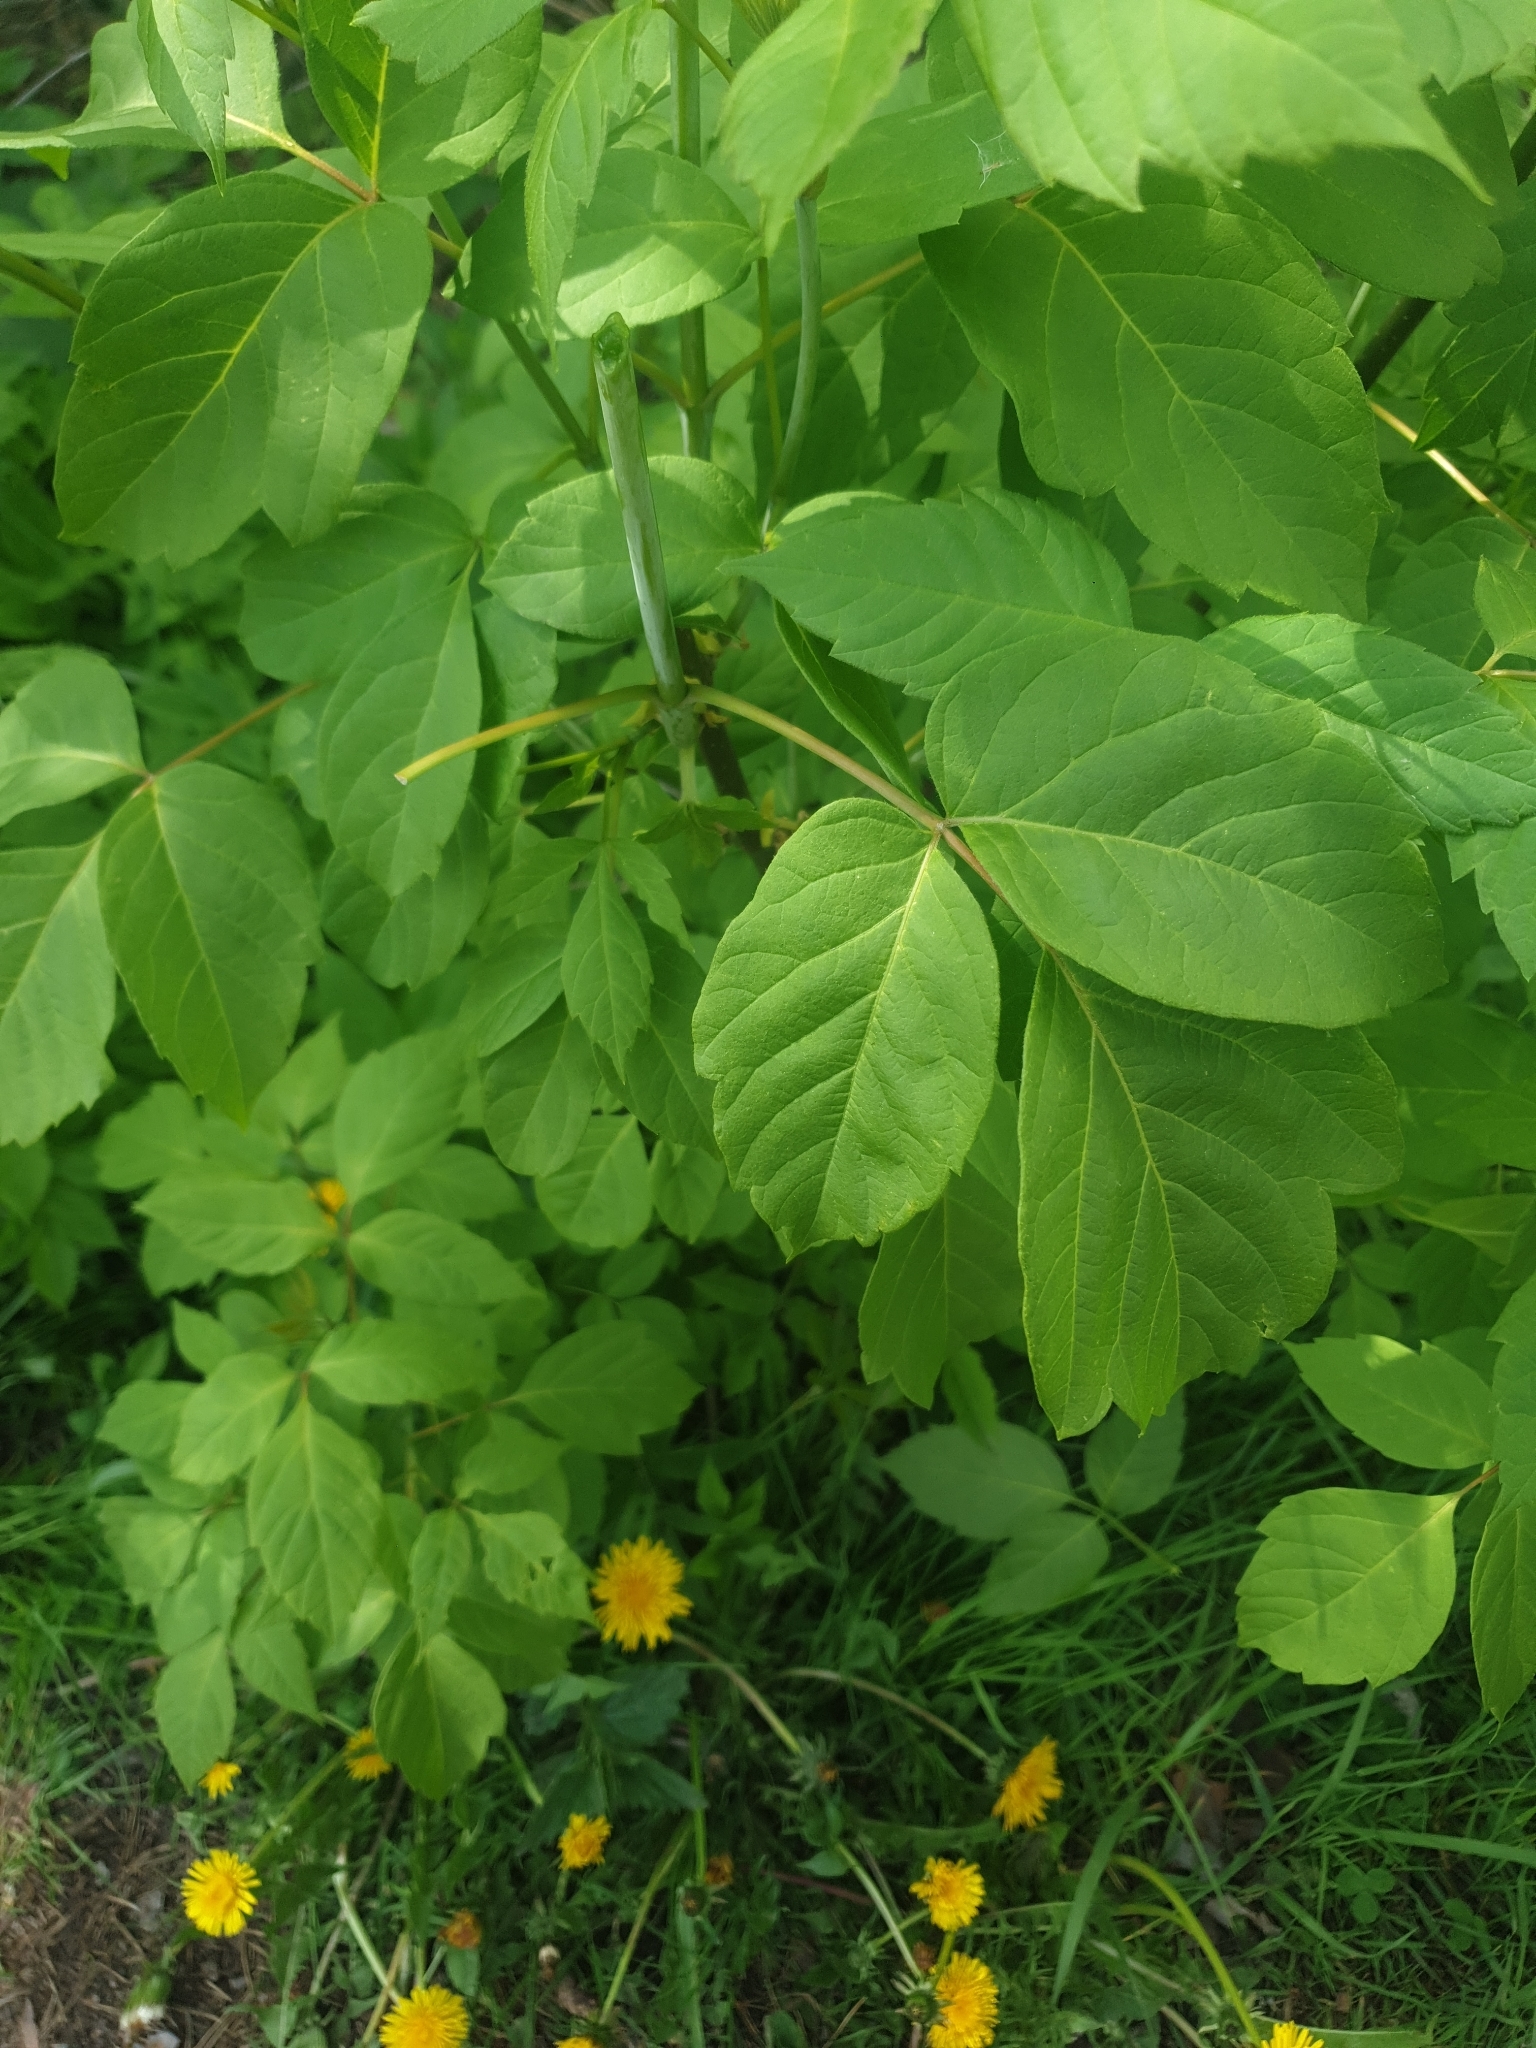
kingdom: Plantae
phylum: Tracheophyta
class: Magnoliopsida
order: Sapindales
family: Sapindaceae
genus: Acer
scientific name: Acer negundo
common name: Ashleaf maple
